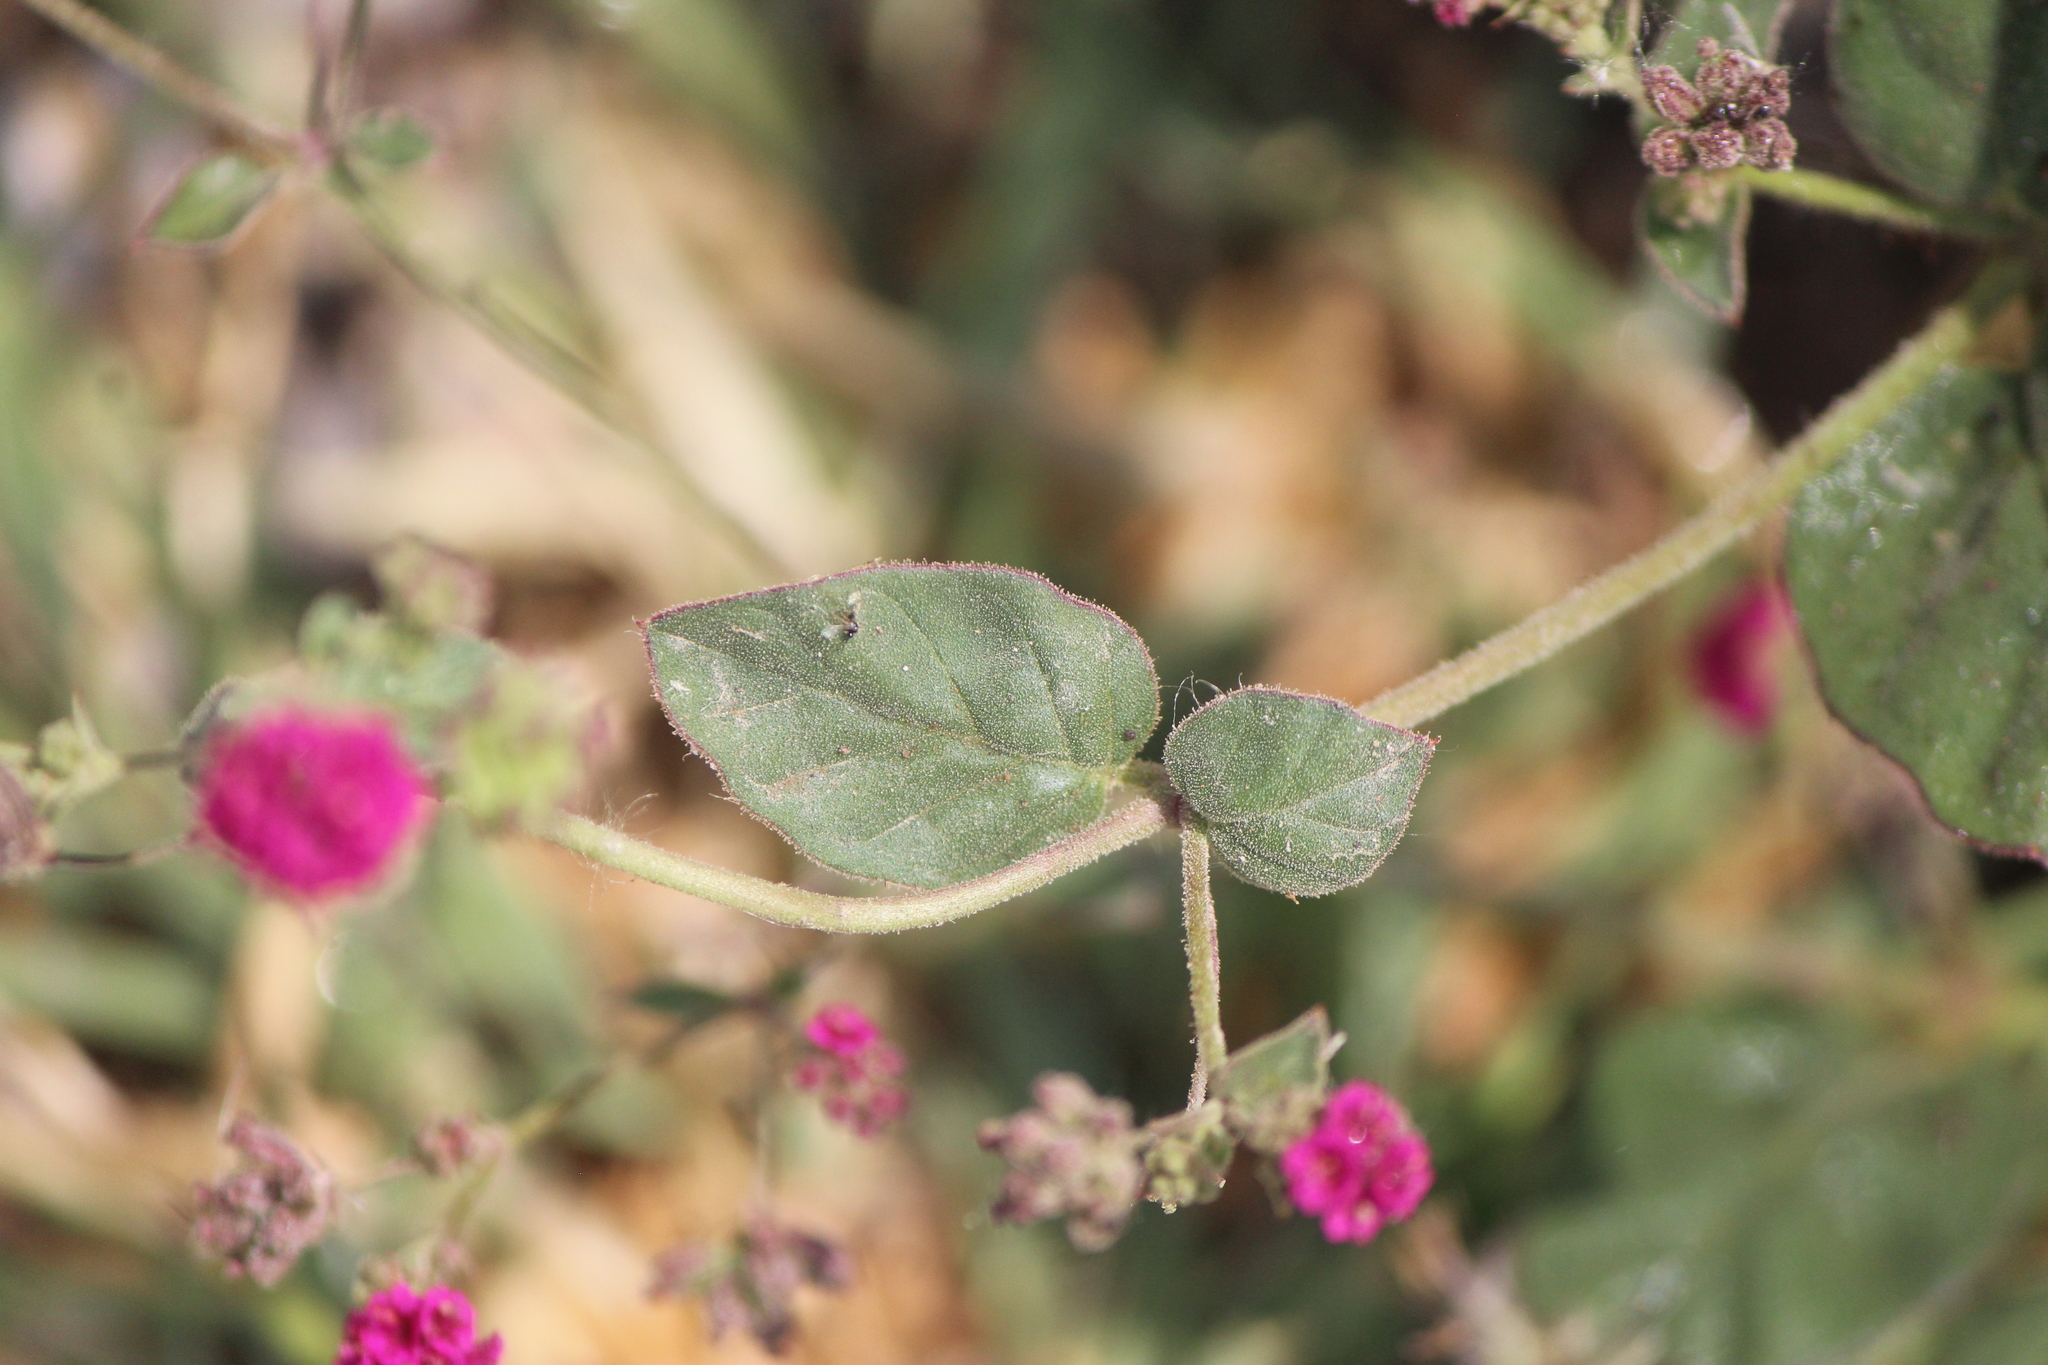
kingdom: Plantae
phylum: Tracheophyta
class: Magnoliopsida
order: Caryophyllales
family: Nyctaginaceae
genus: Boerhavia
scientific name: Boerhavia coccinea
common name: Scarlet spiderling
